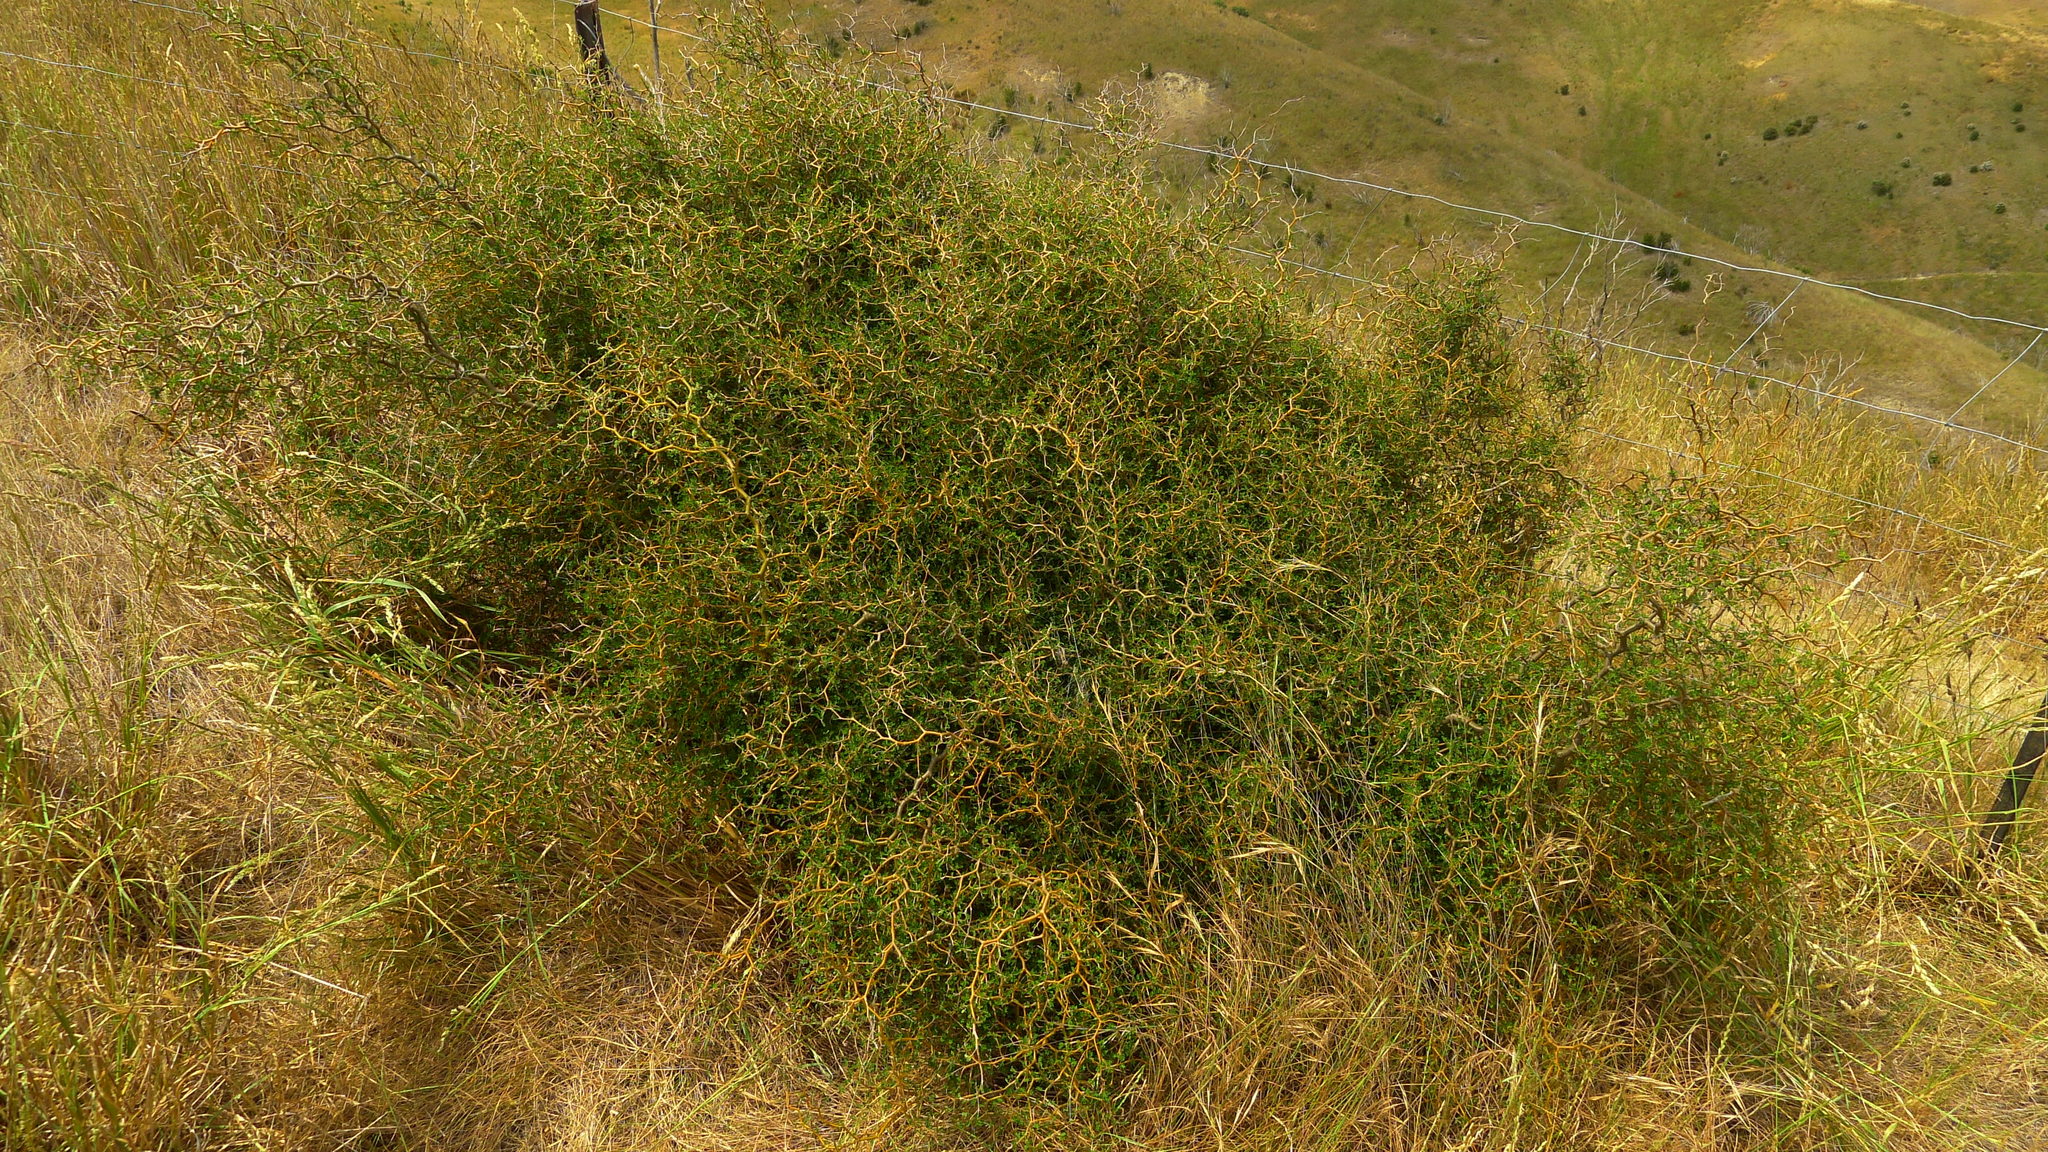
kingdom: Plantae
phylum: Tracheophyta
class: Magnoliopsida
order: Fabales
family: Fabaceae
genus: Sophora
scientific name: Sophora prostrata
